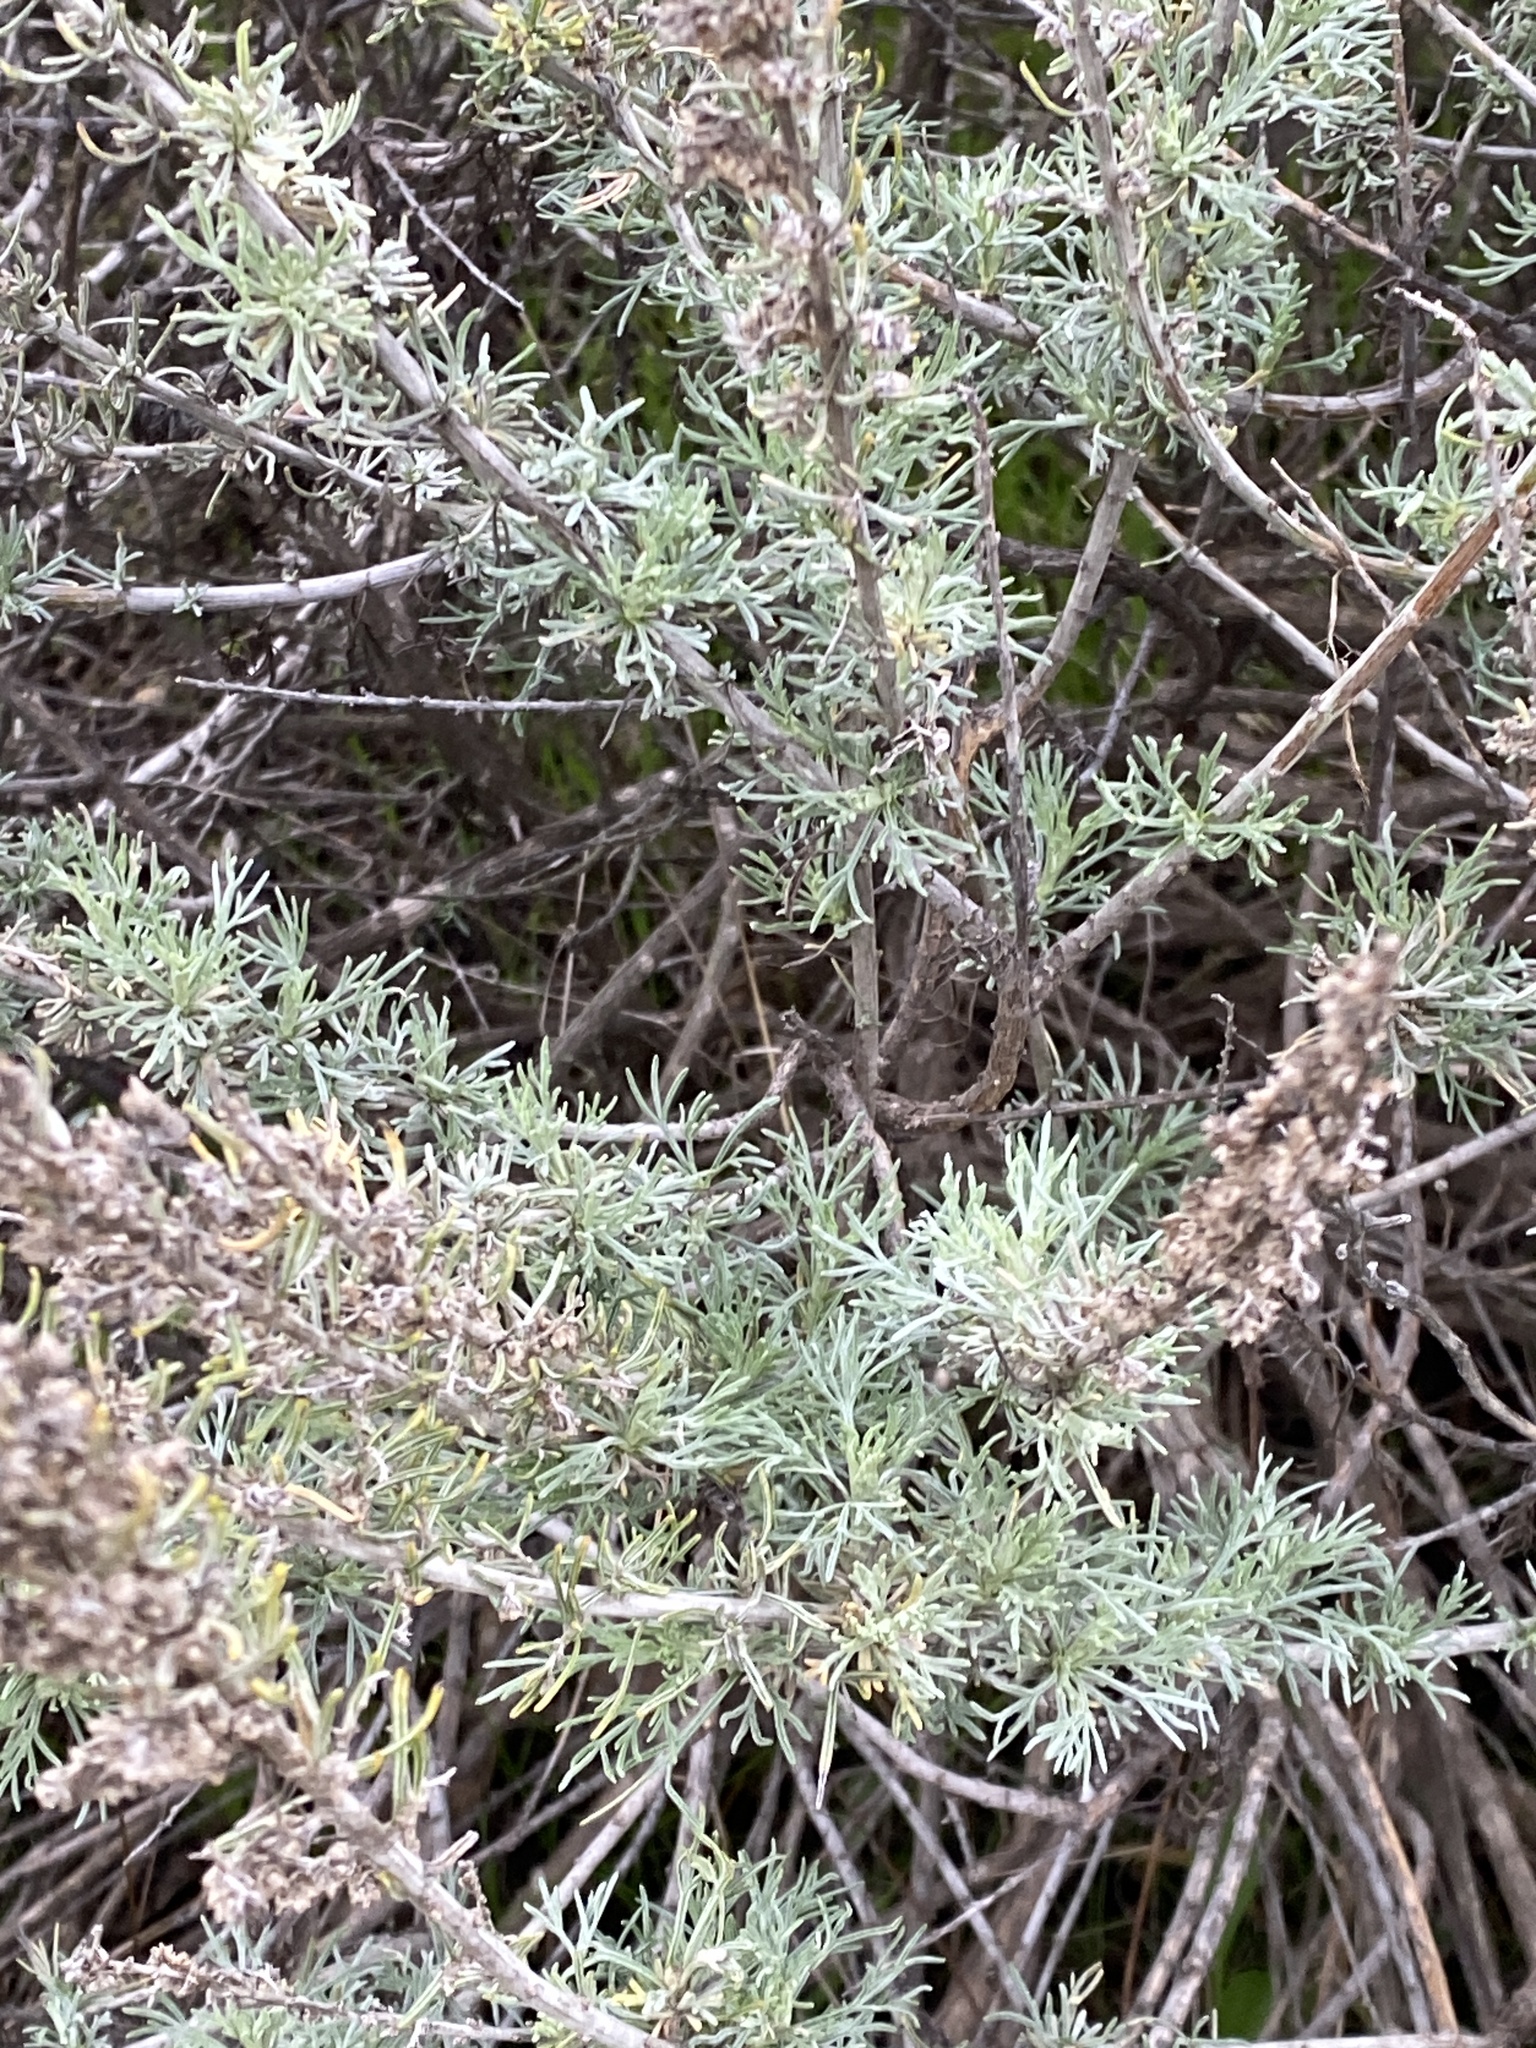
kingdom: Plantae
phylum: Tracheophyta
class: Magnoliopsida
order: Asterales
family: Asteraceae
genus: Artemisia
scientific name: Artemisia californica
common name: California sagebrush
